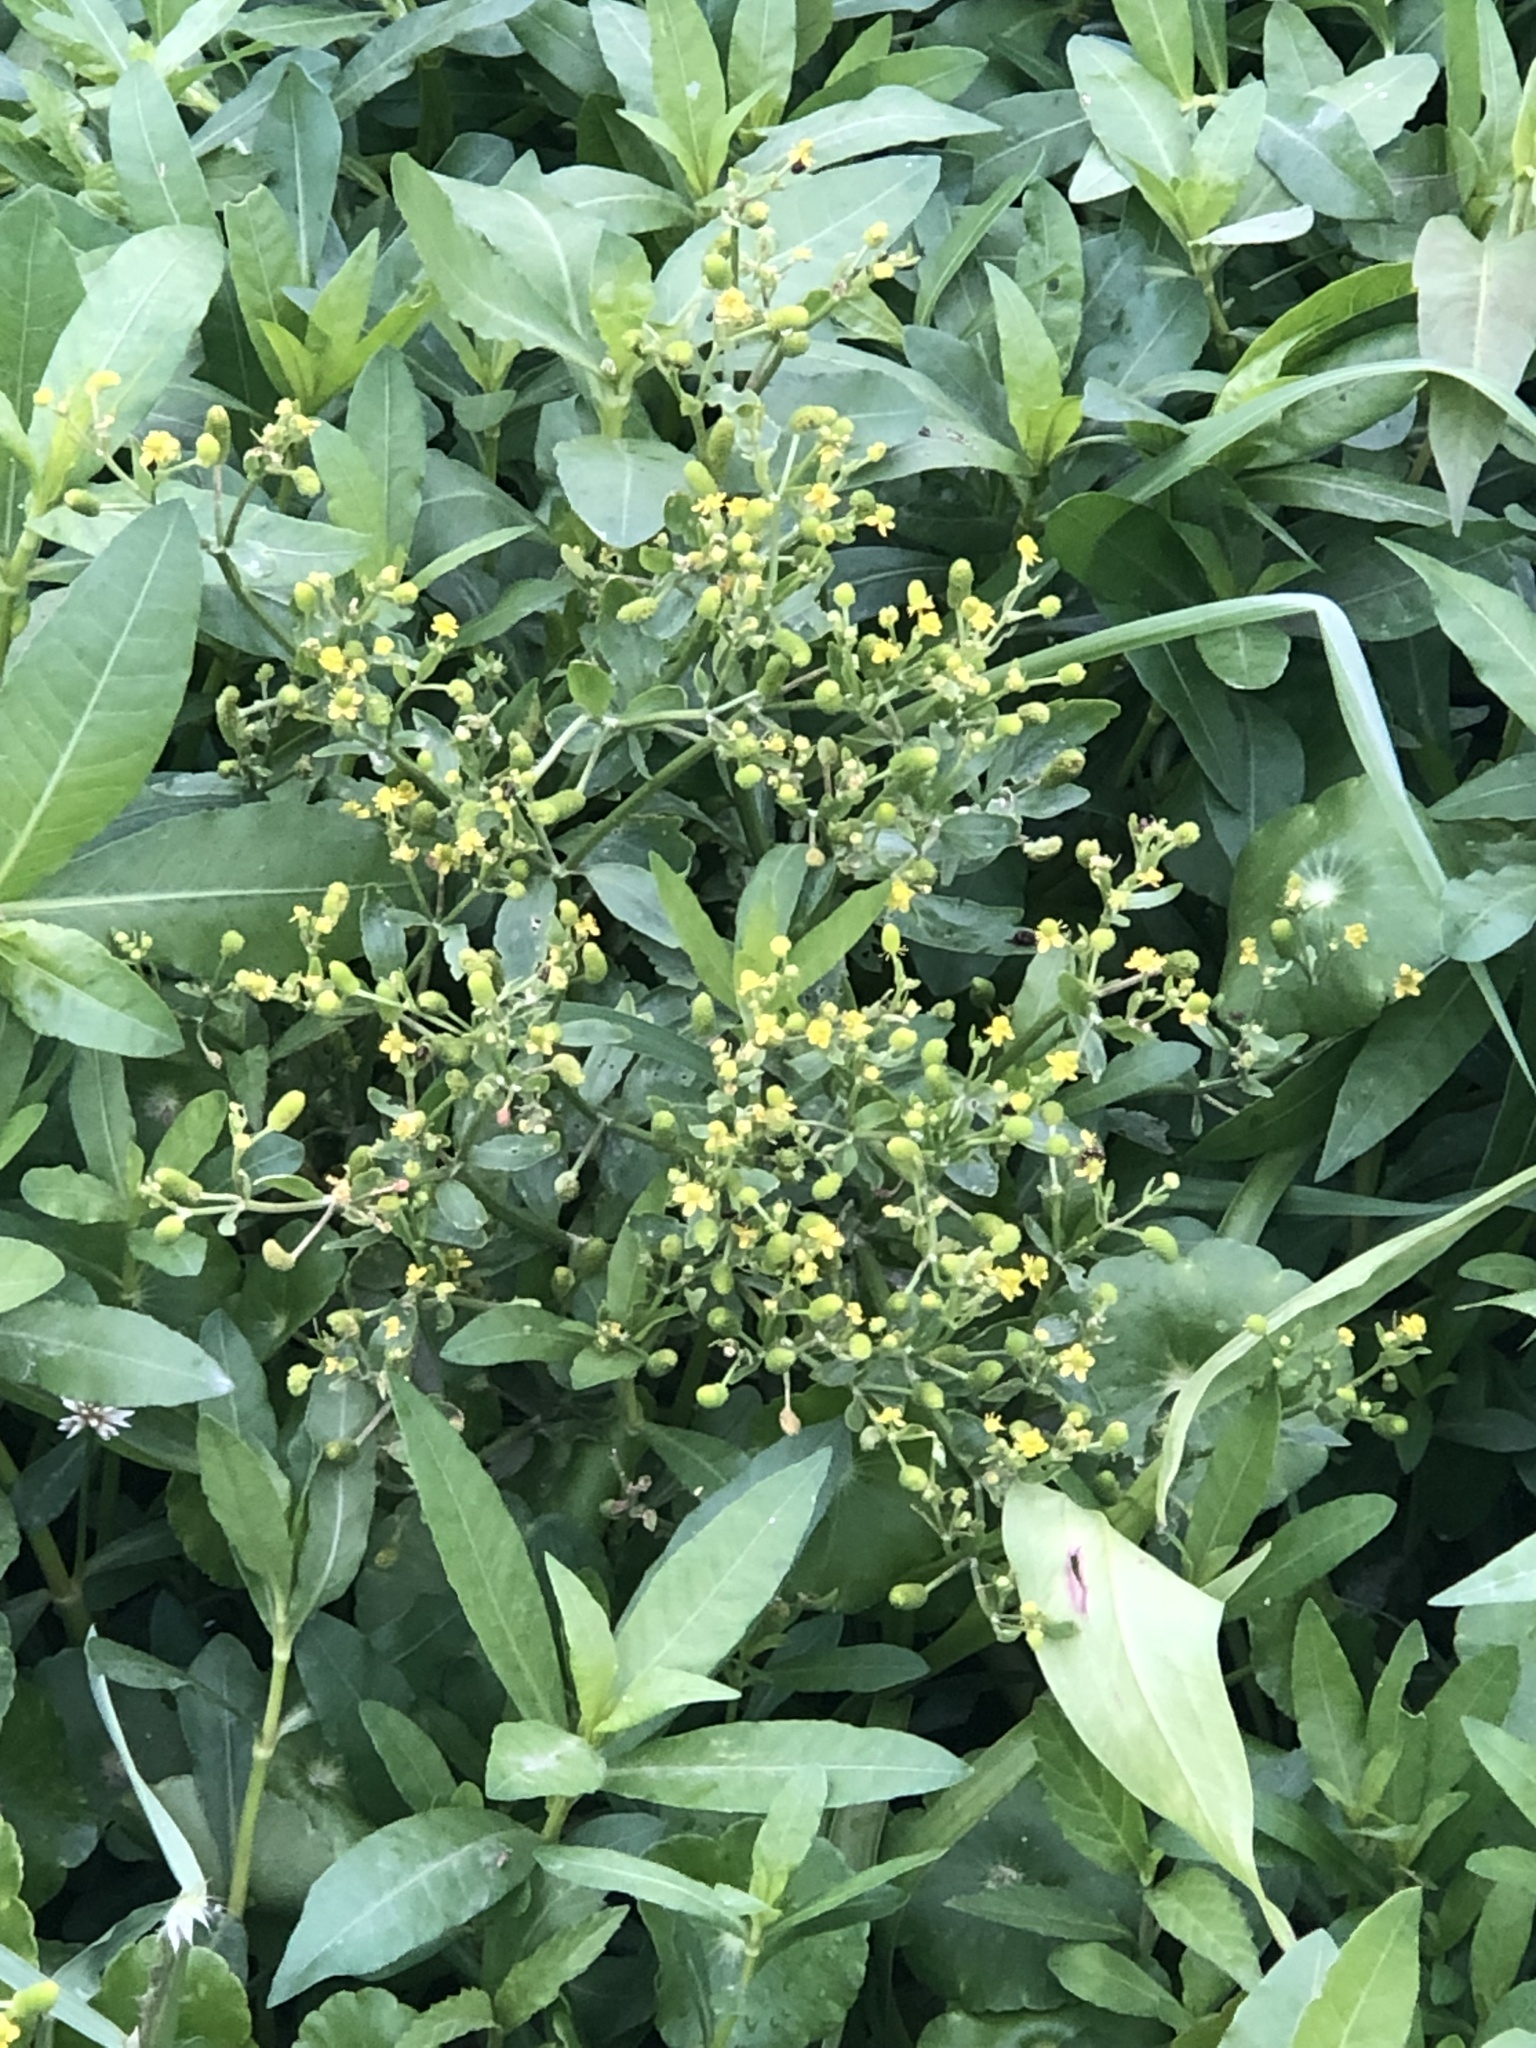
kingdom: Plantae
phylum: Tracheophyta
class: Magnoliopsida
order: Ranunculales
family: Ranunculaceae
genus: Ranunculus
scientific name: Ranunculus sceleratus
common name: Celery-leaved buttercup
